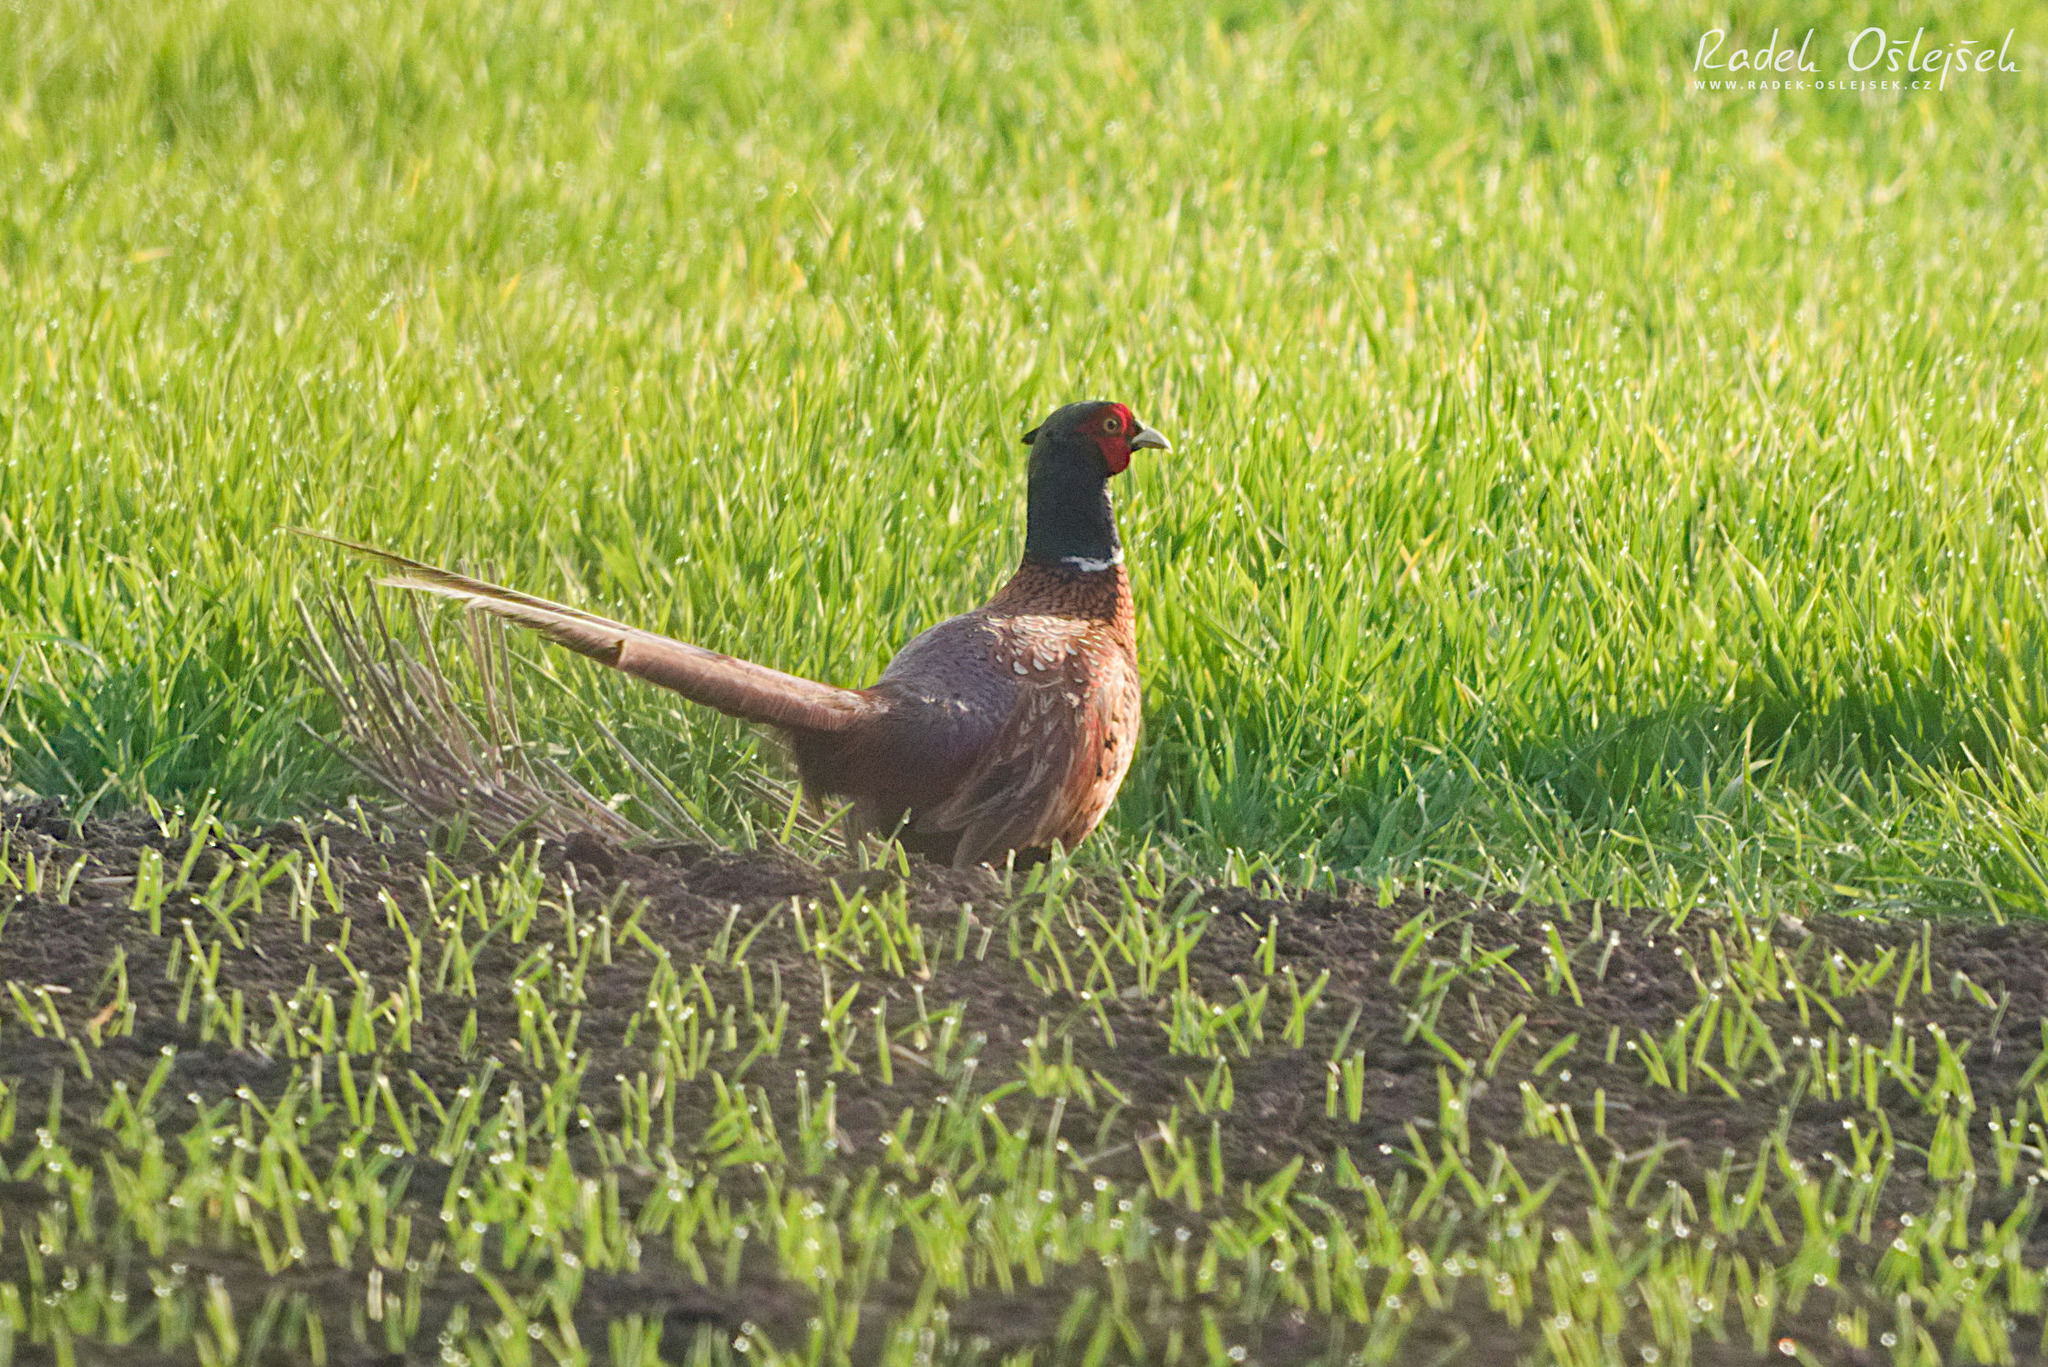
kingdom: Animalia
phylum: Chordata
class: Aves
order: Galliformes
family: Phasianidae
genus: Phasianus
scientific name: Phasianus colchicus
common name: Common pheasant
